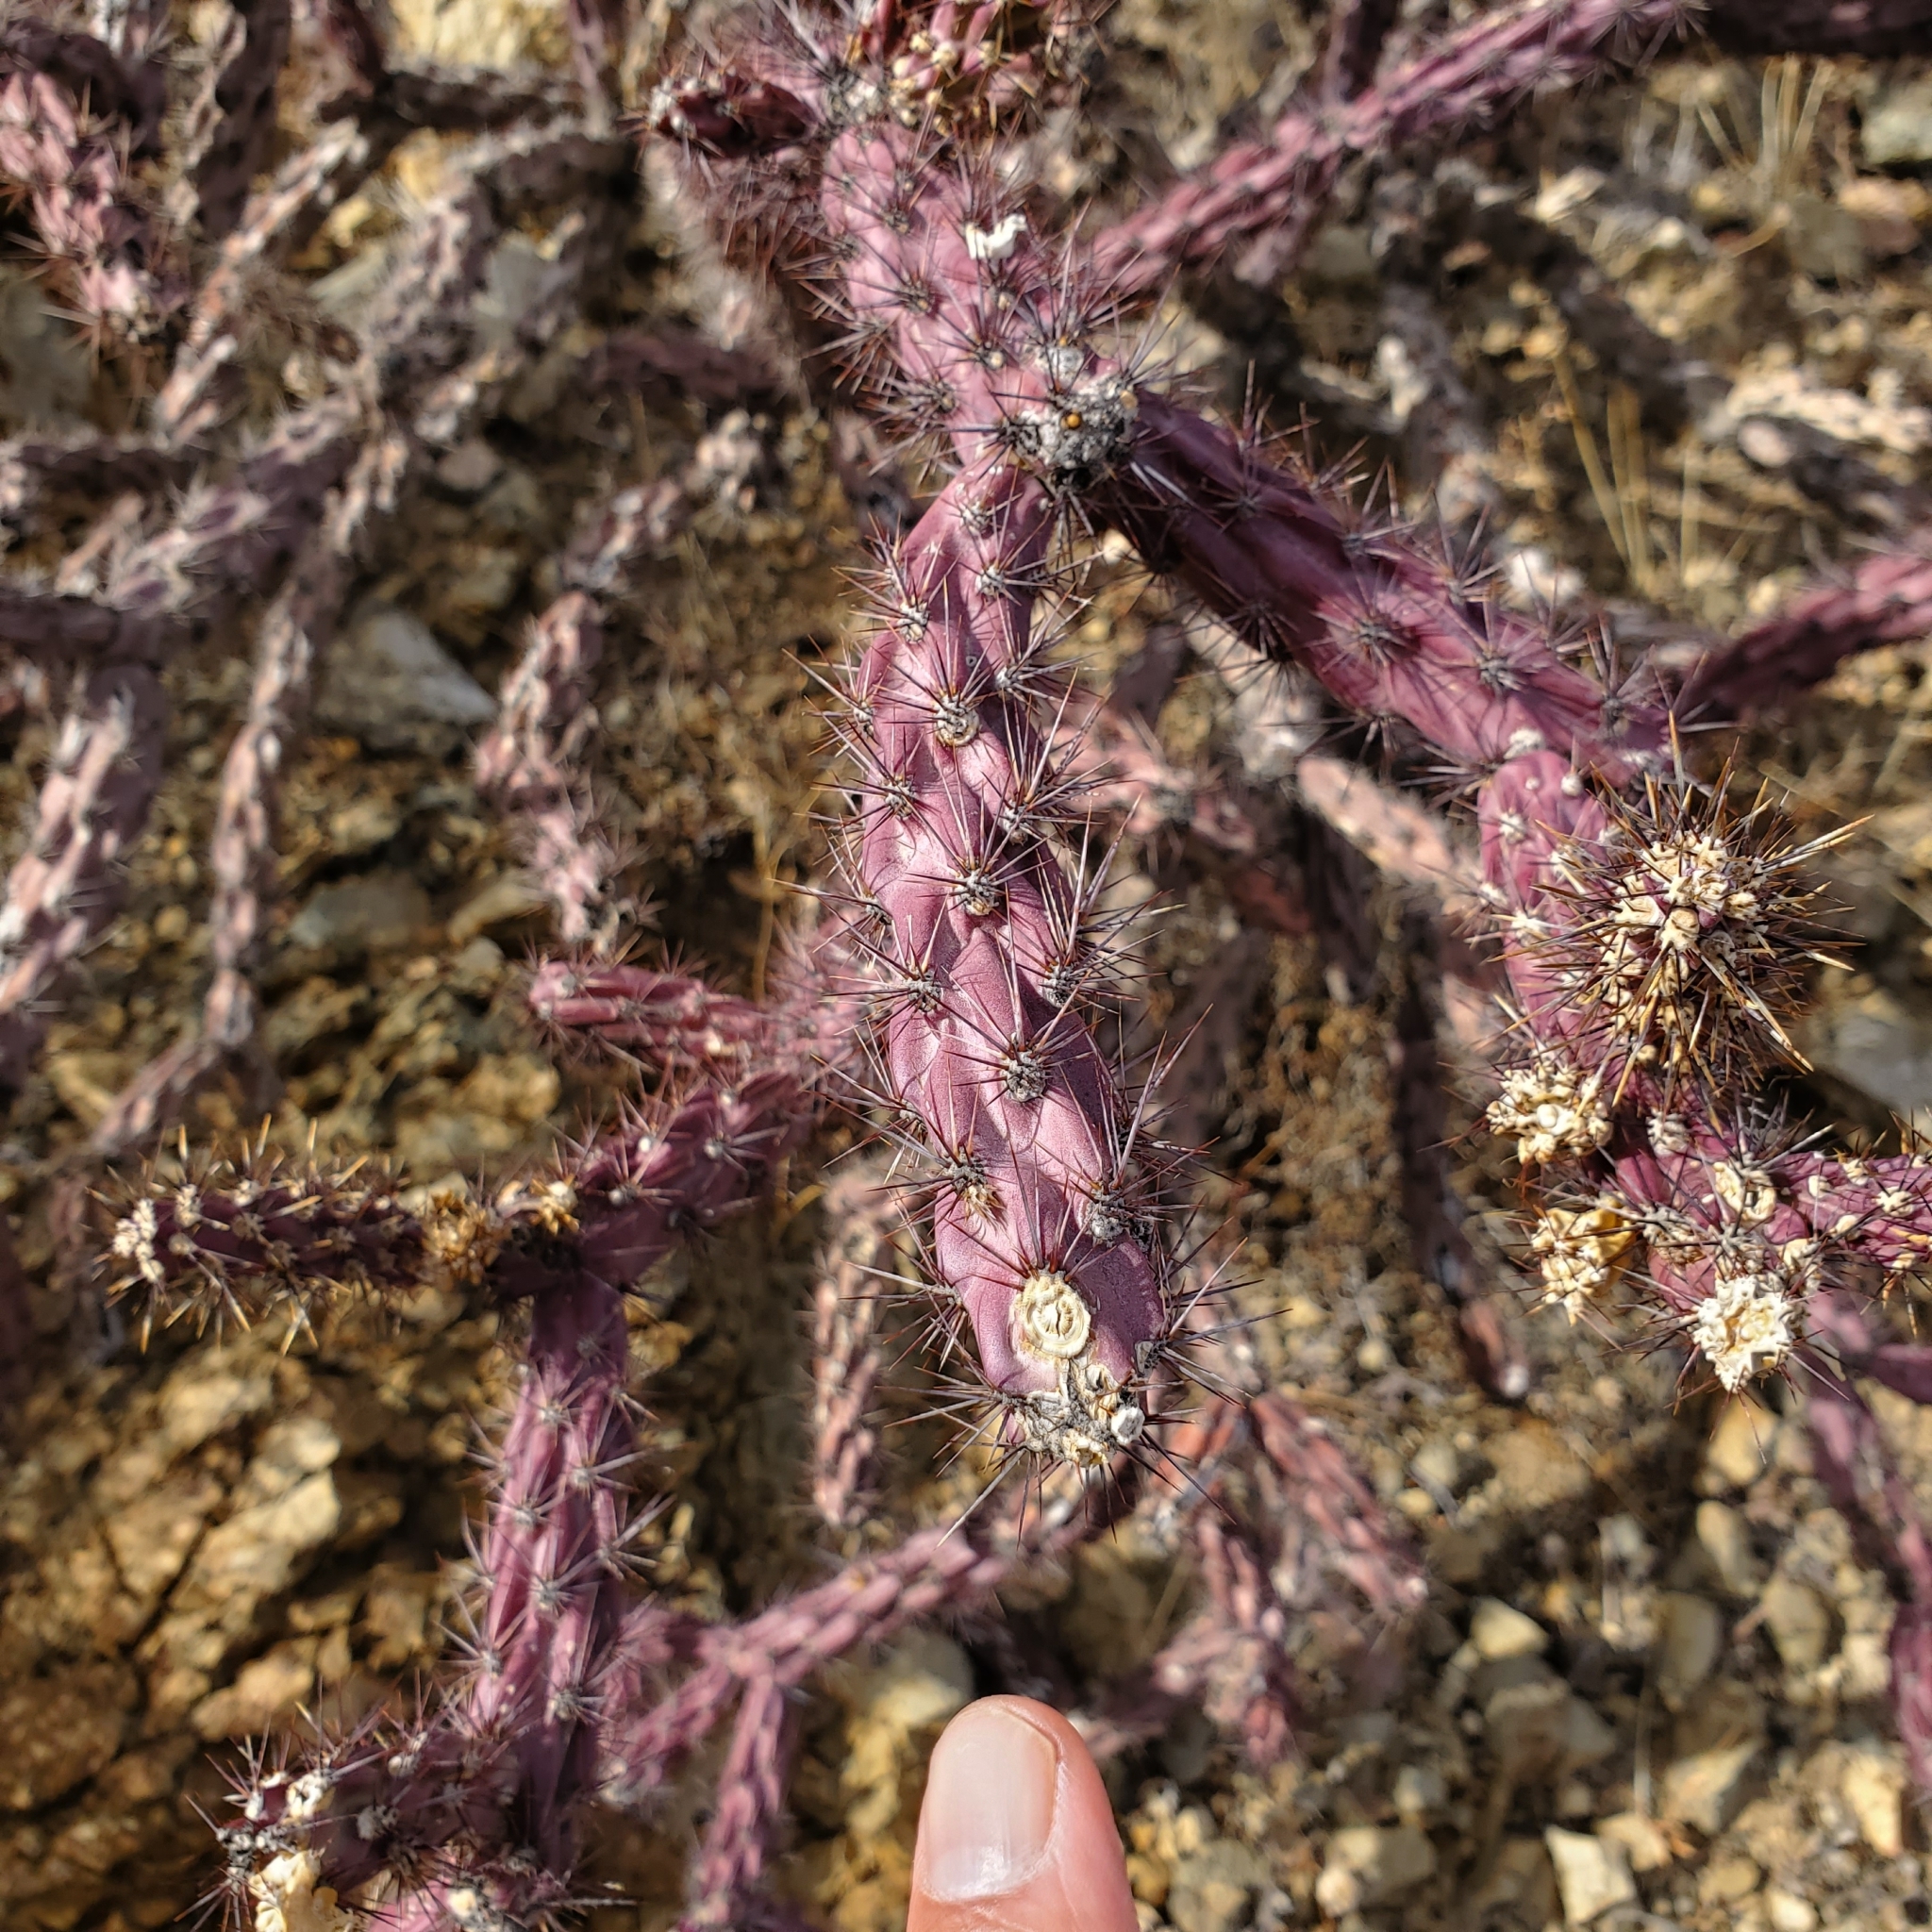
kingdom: Plantae
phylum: Tracheophyta
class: Magnoliopsida
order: Caryophyllales
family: Cactaceae
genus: Cylindropuntia
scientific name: Cylindropuntia acanthocarpa
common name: Buckhorn cholla
